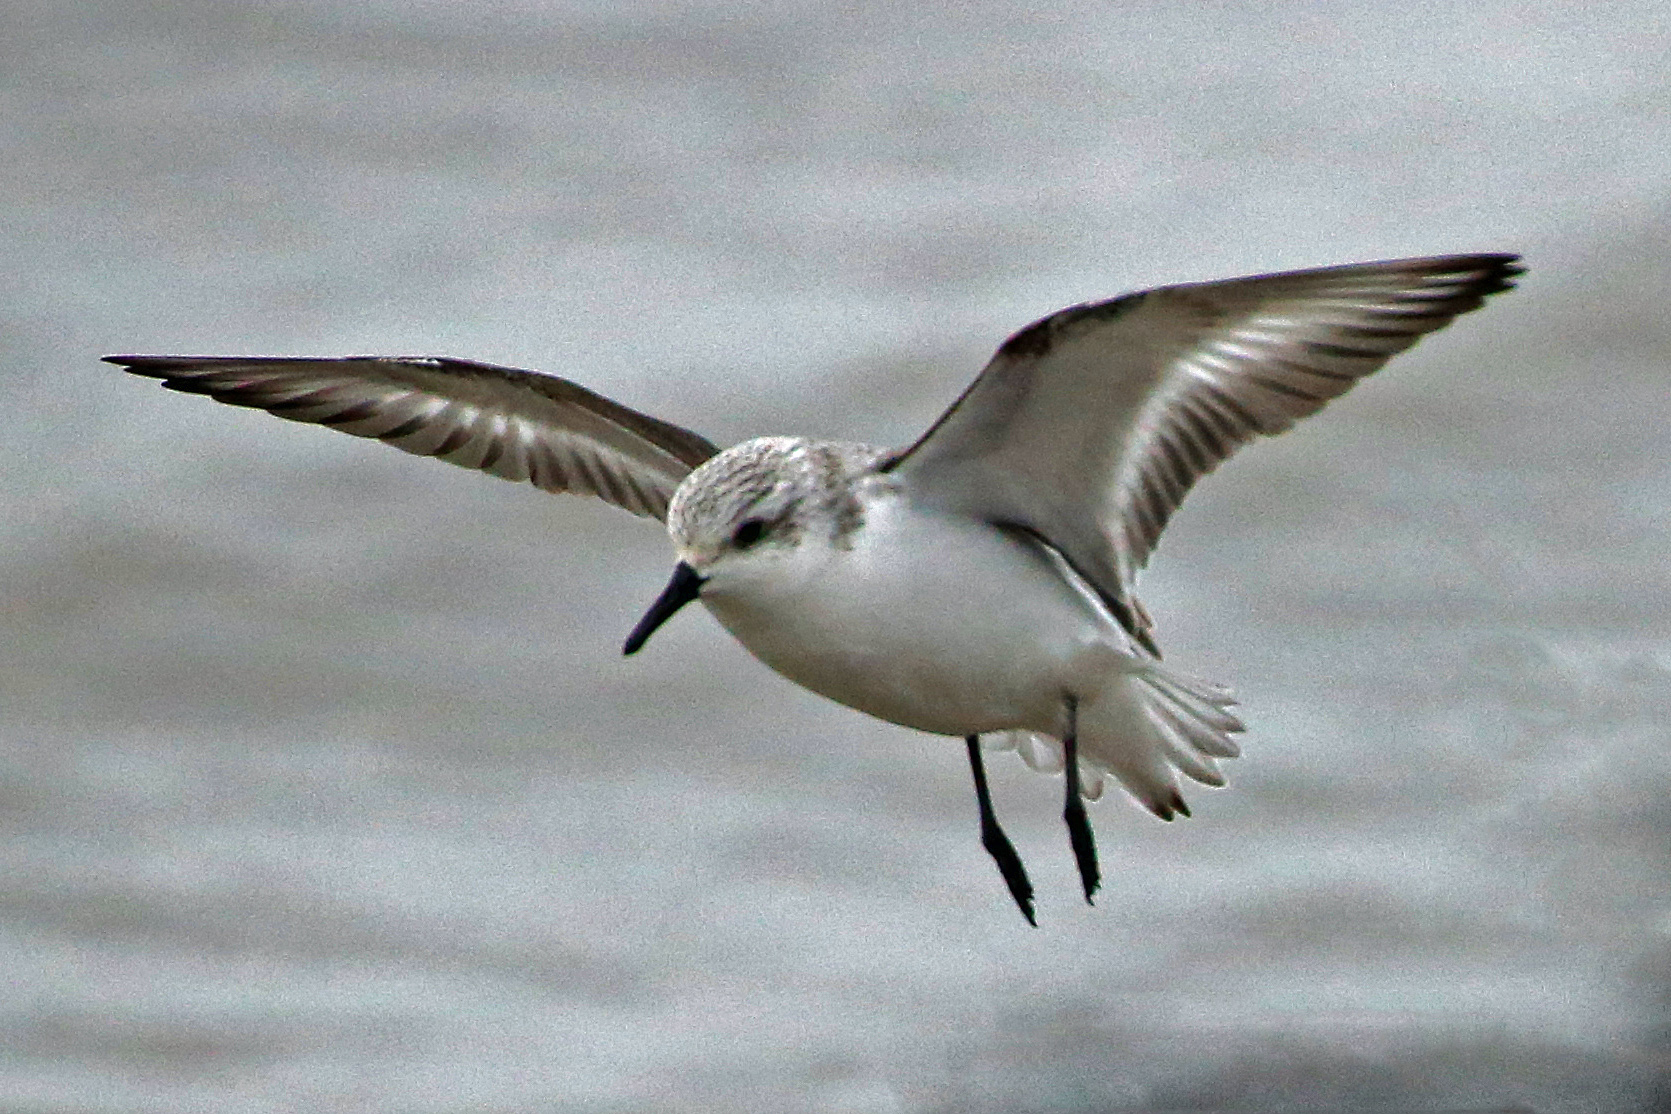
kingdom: Animalia
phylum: Chordata
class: Aves
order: Charadriiformes
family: Scolopacidae
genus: Calidris
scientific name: Calidris alba
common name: Sanderling
